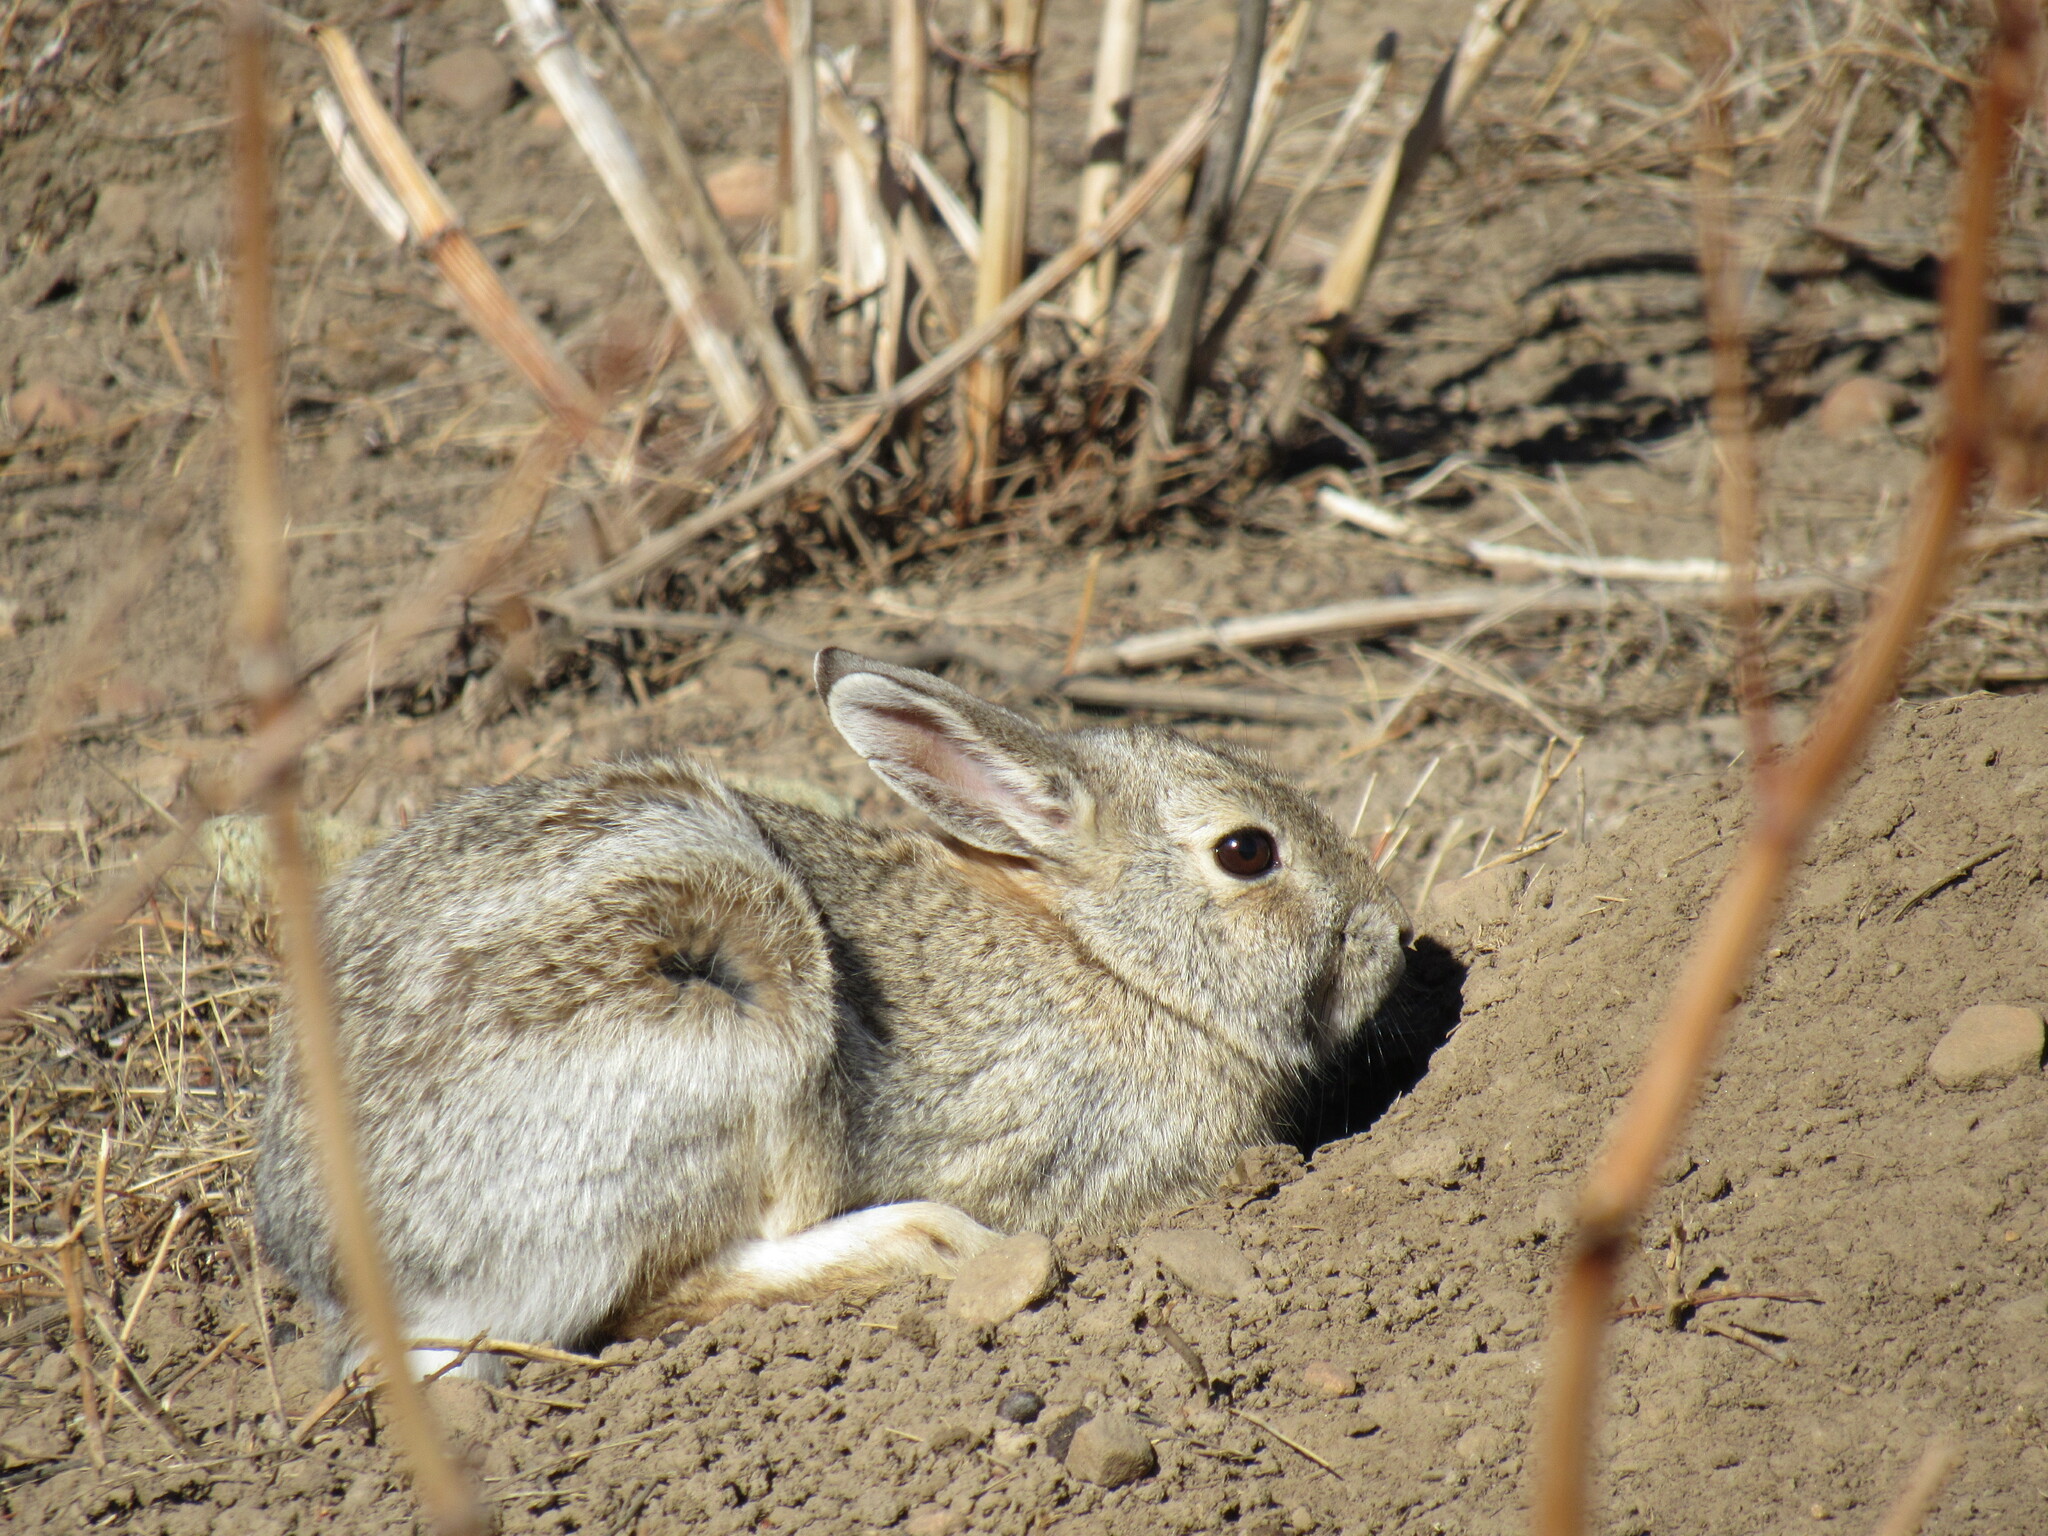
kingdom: Animalia
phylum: Chordata
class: Mammalia
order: Lagomorpha
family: Leporidae
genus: Sylvilagus
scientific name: Sylvilagus nuttallii
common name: Mountain cottontail
